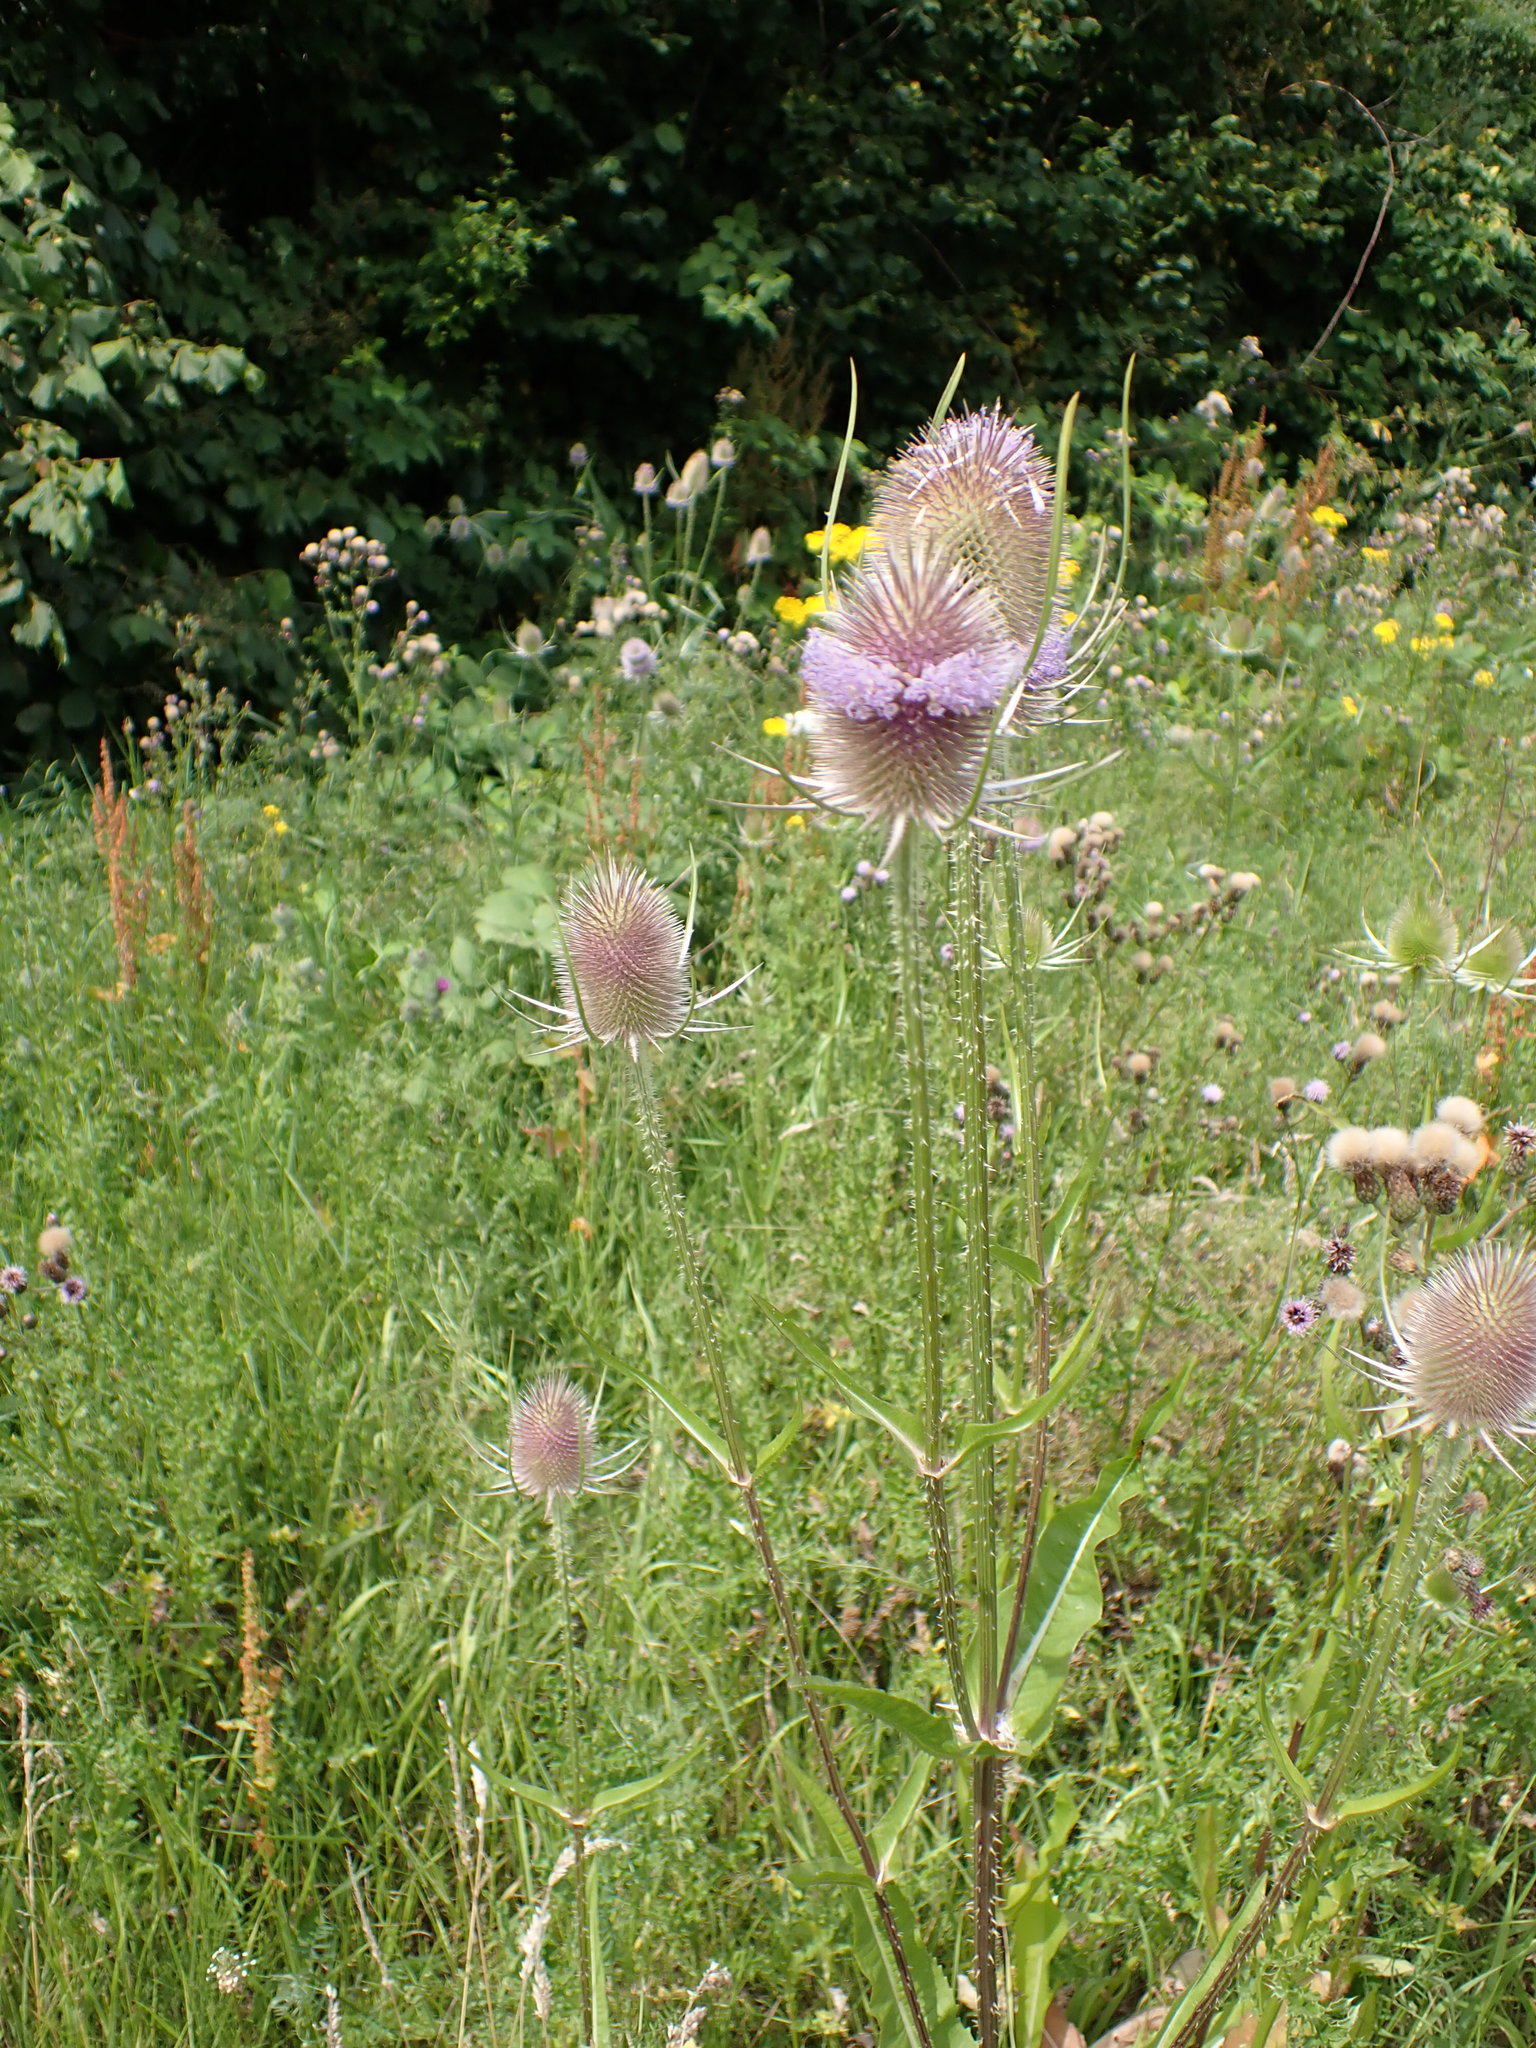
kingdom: Plantae
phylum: Tracheophyta
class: Magnoliopsida
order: Dipsacales
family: Caprifoliaceae
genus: Dipsacus
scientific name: Dipsacus fullonum
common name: Teasel
